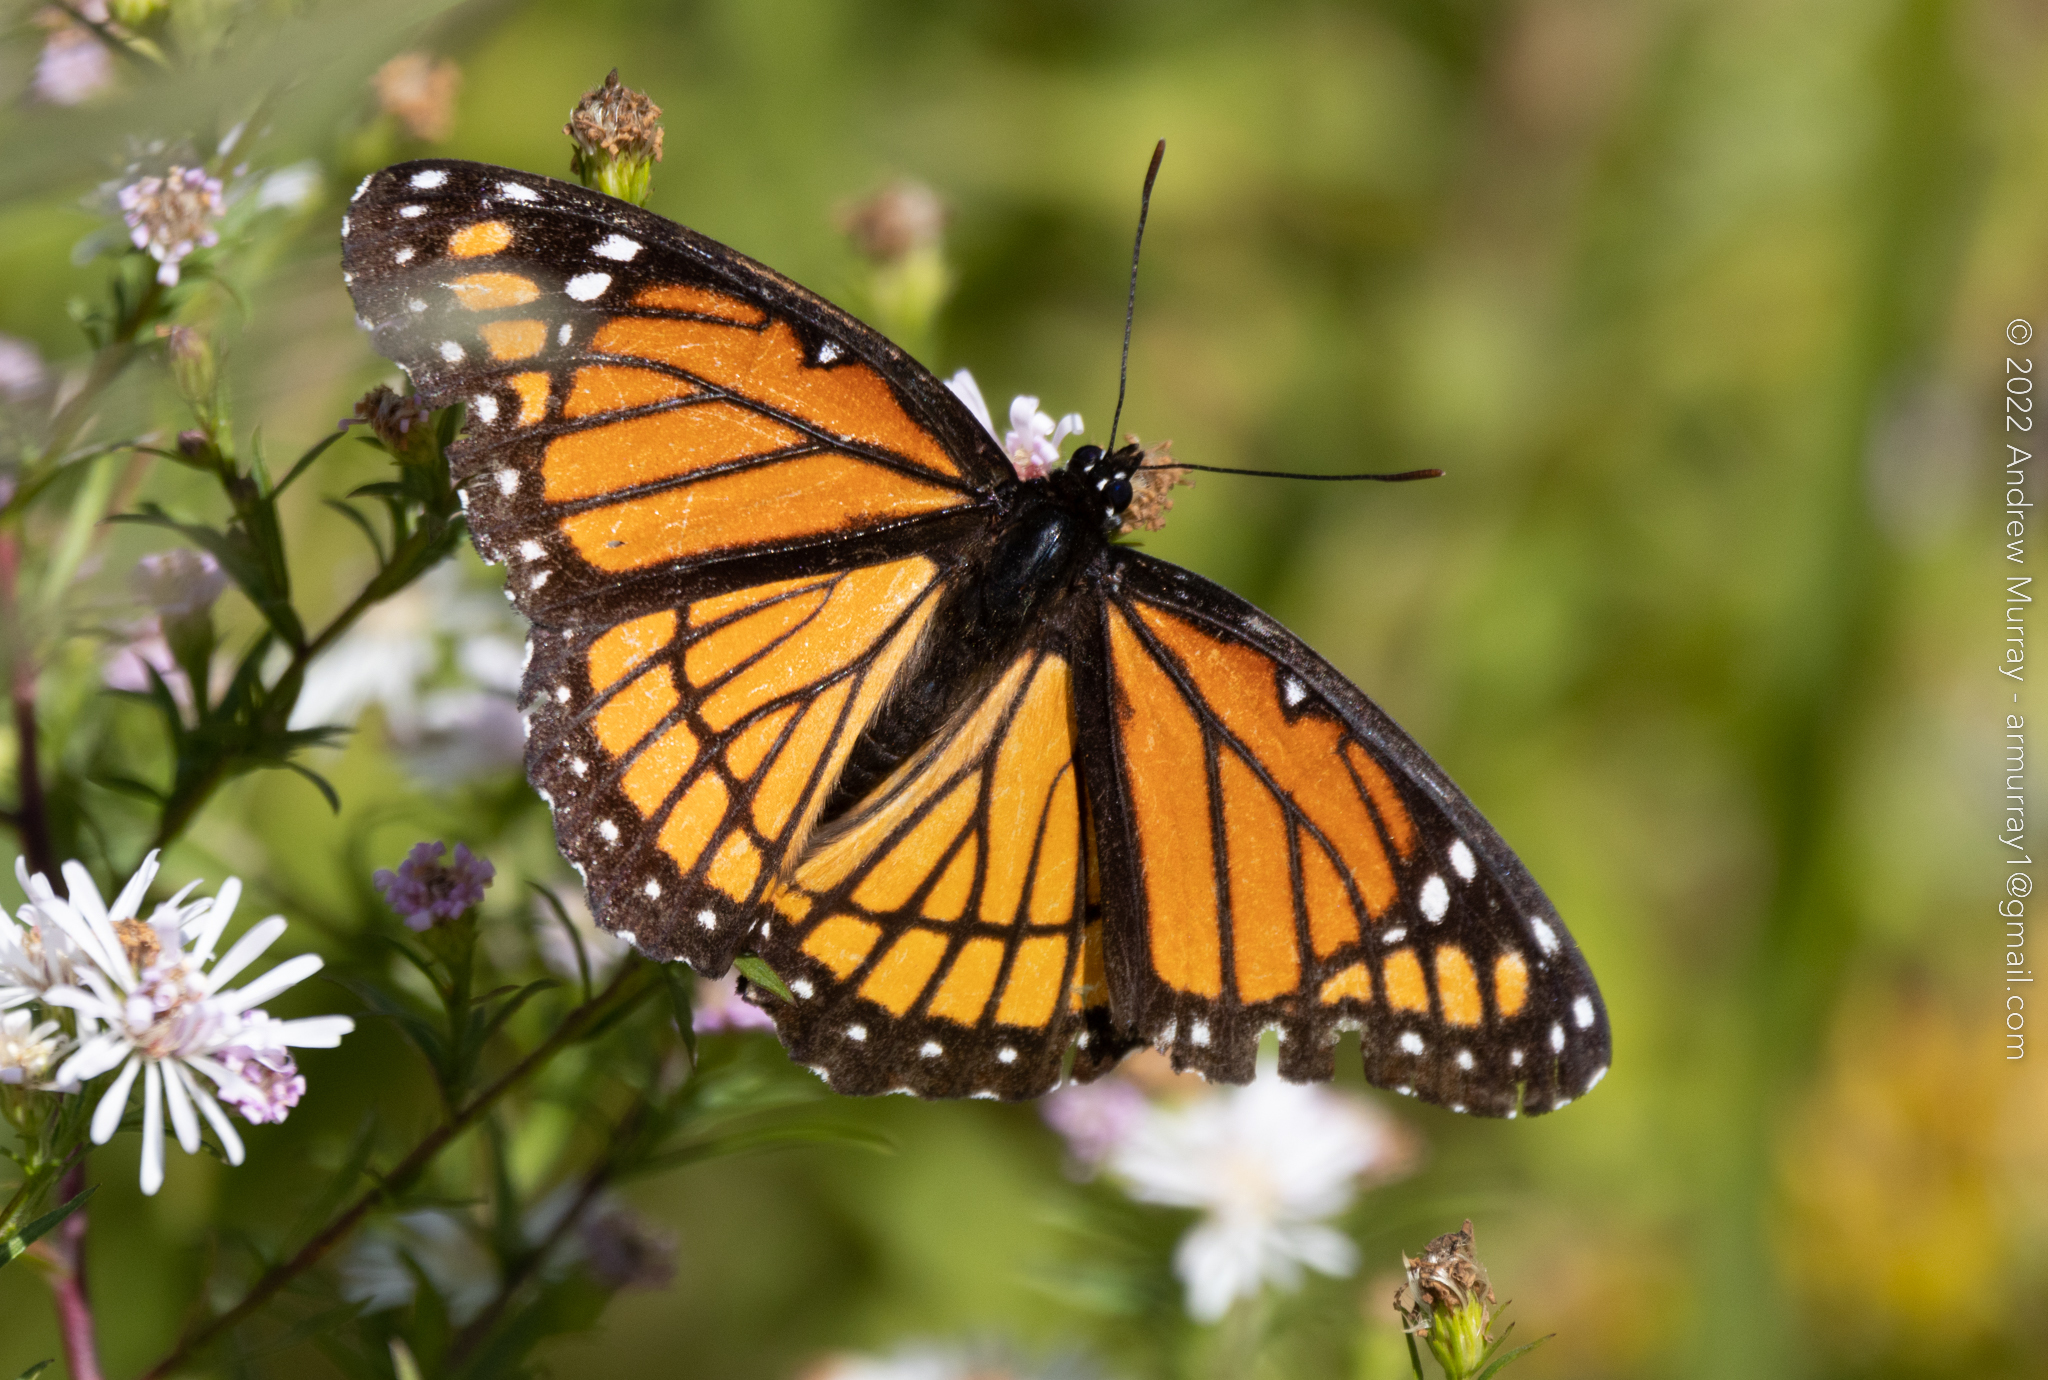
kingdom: Animalia
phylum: Arthropoda
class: Insecta
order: Lepidoptera
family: Nymphalidae
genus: Limenitis
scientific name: Limenitis archippus
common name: Viceroy
